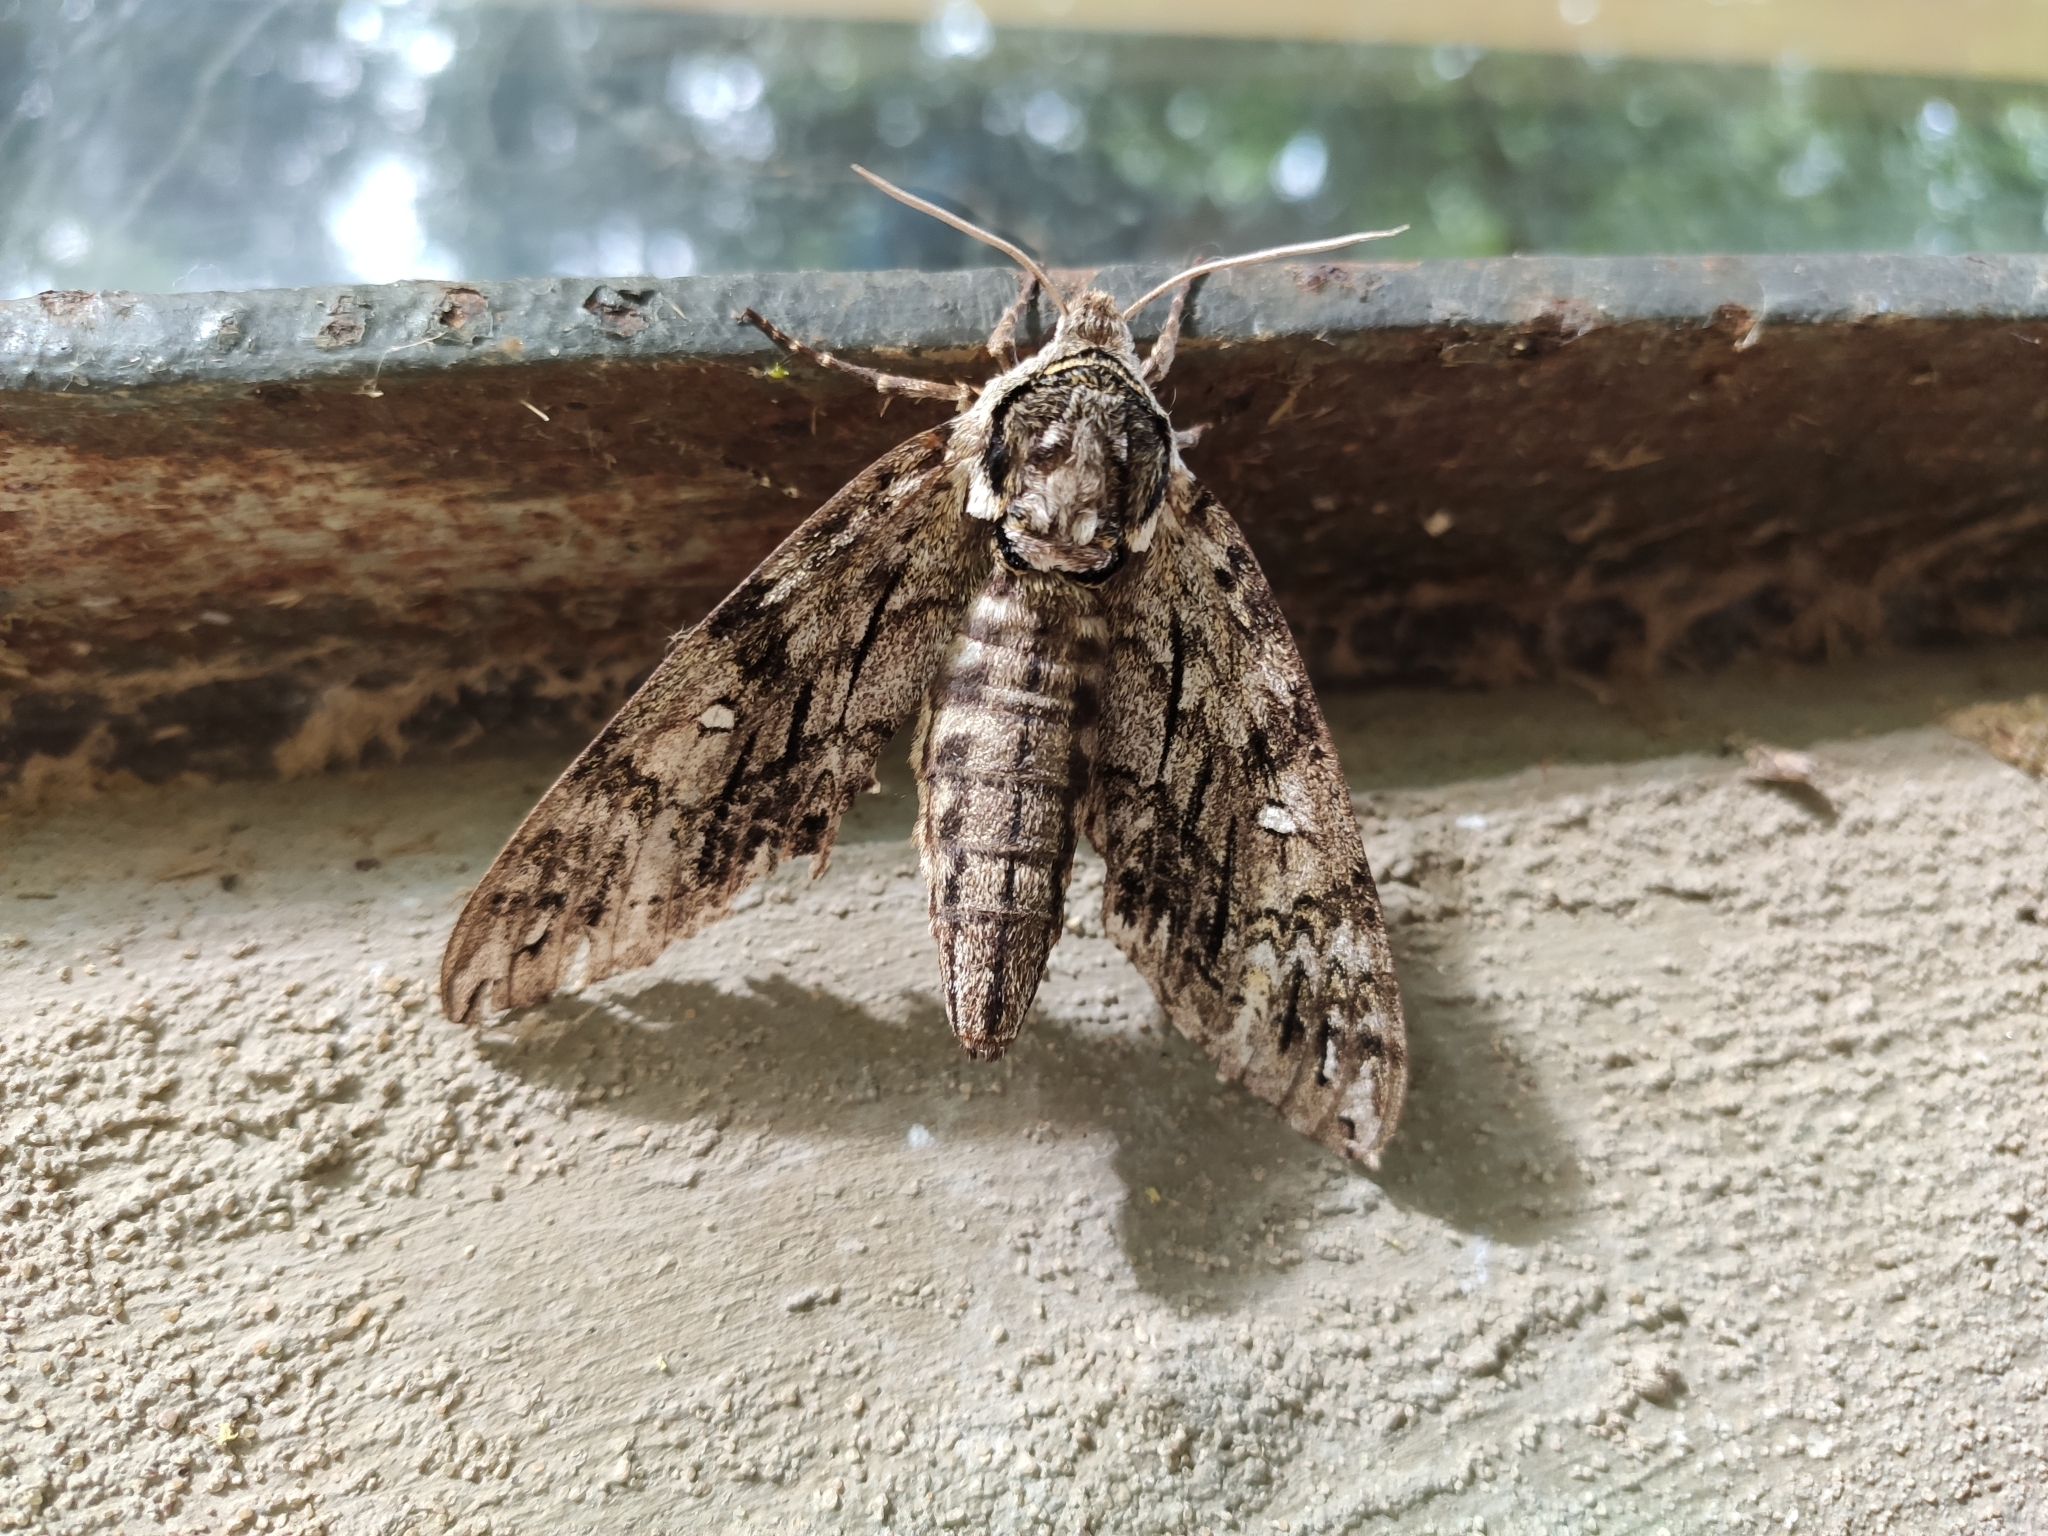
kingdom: Animalia
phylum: Arthropoda
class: Insecta
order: Lepidoptera
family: Sphingidae
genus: Ceratomia
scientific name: Ceratomia undulosa
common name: Waved sphinx
